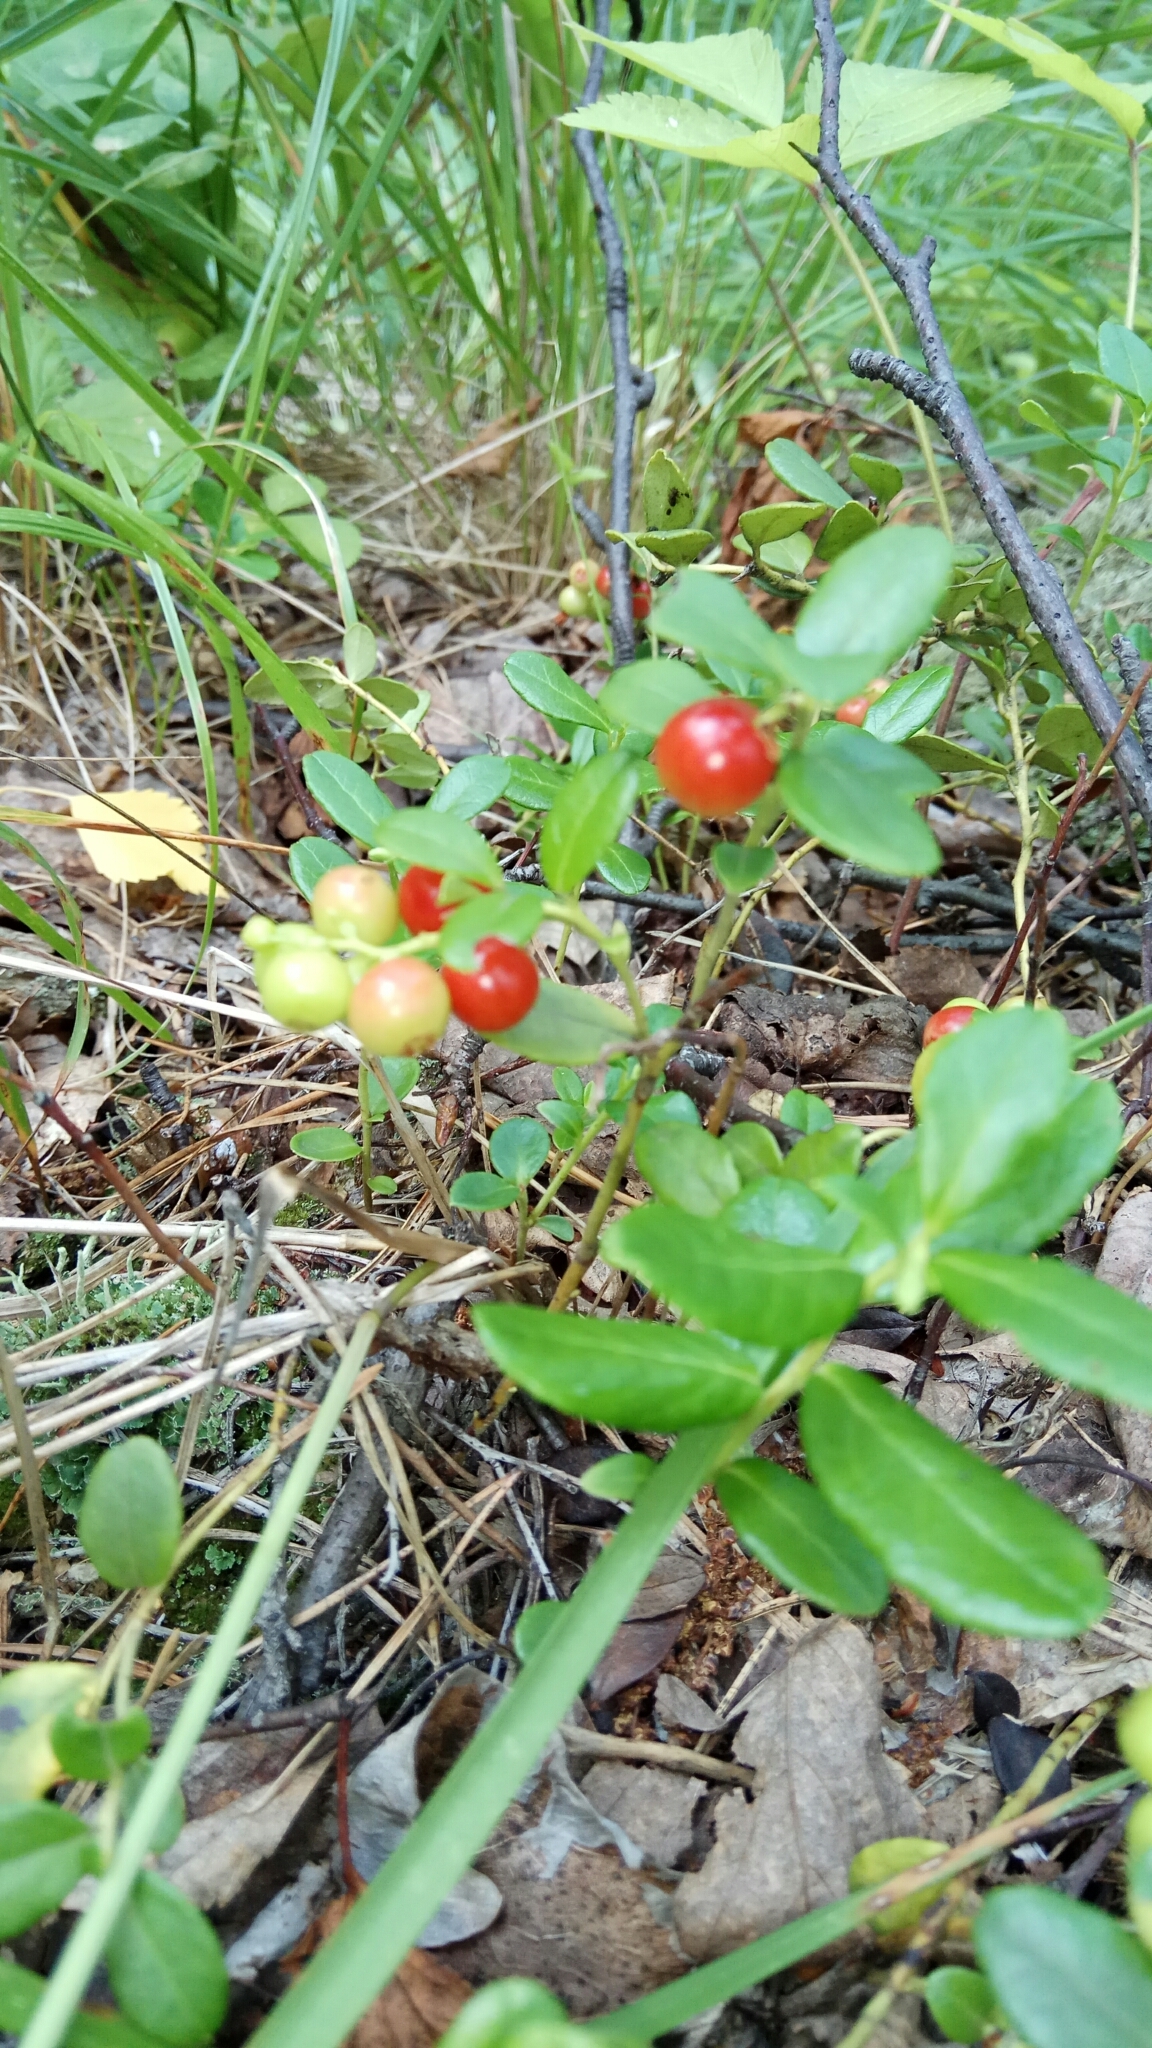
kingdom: Plantae
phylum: Tracheophyta
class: Magnoliopsida
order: Ericales
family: Ericaceae
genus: Vaccinium
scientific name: Vaccinium vitis-idaea
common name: Cowberry
